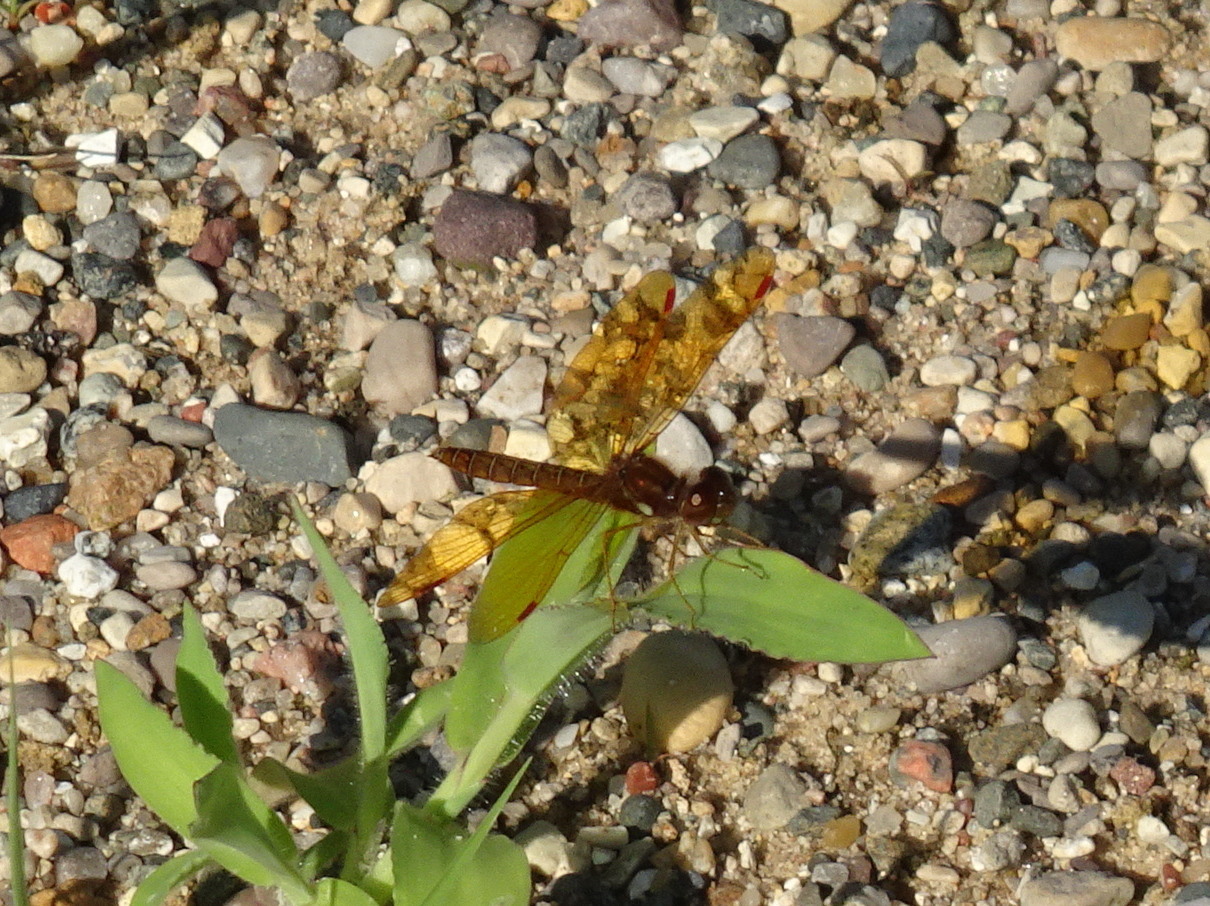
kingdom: Animalia
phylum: Arthropoda
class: Insecta
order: Odonata
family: Libellulidae
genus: Perithemis
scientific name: Perithemis tenera
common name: Eastern amberwing
